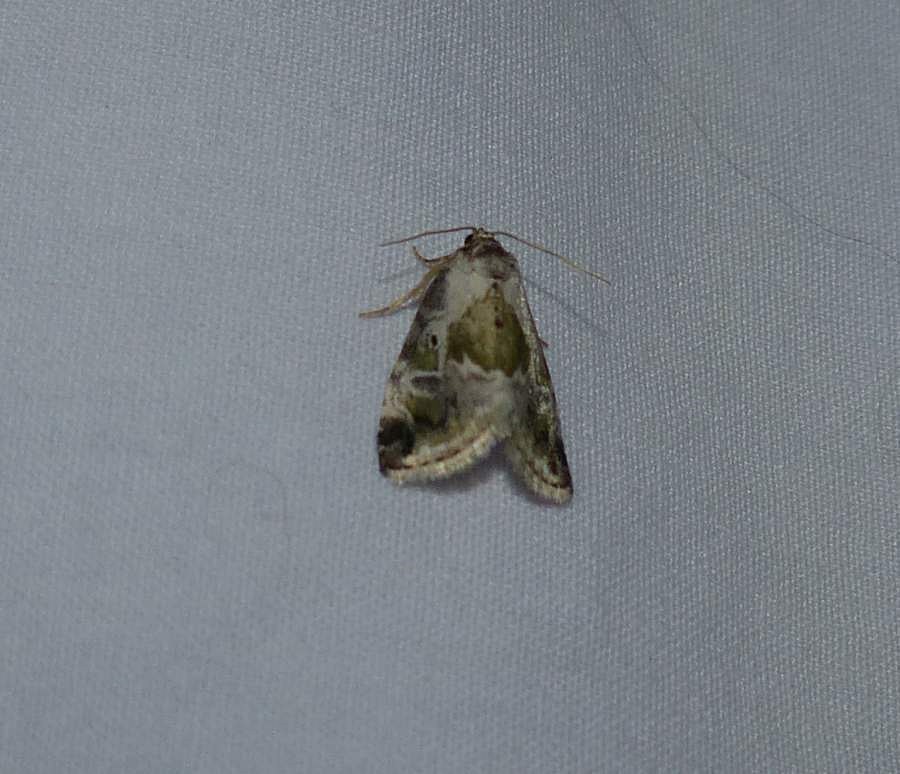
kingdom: Animalia
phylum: Arthropoda
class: Insecta
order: Lepidoptera
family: Noctuidae
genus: Maliattha
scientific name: Maliattha synochitis
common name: Black-dotted glyph
